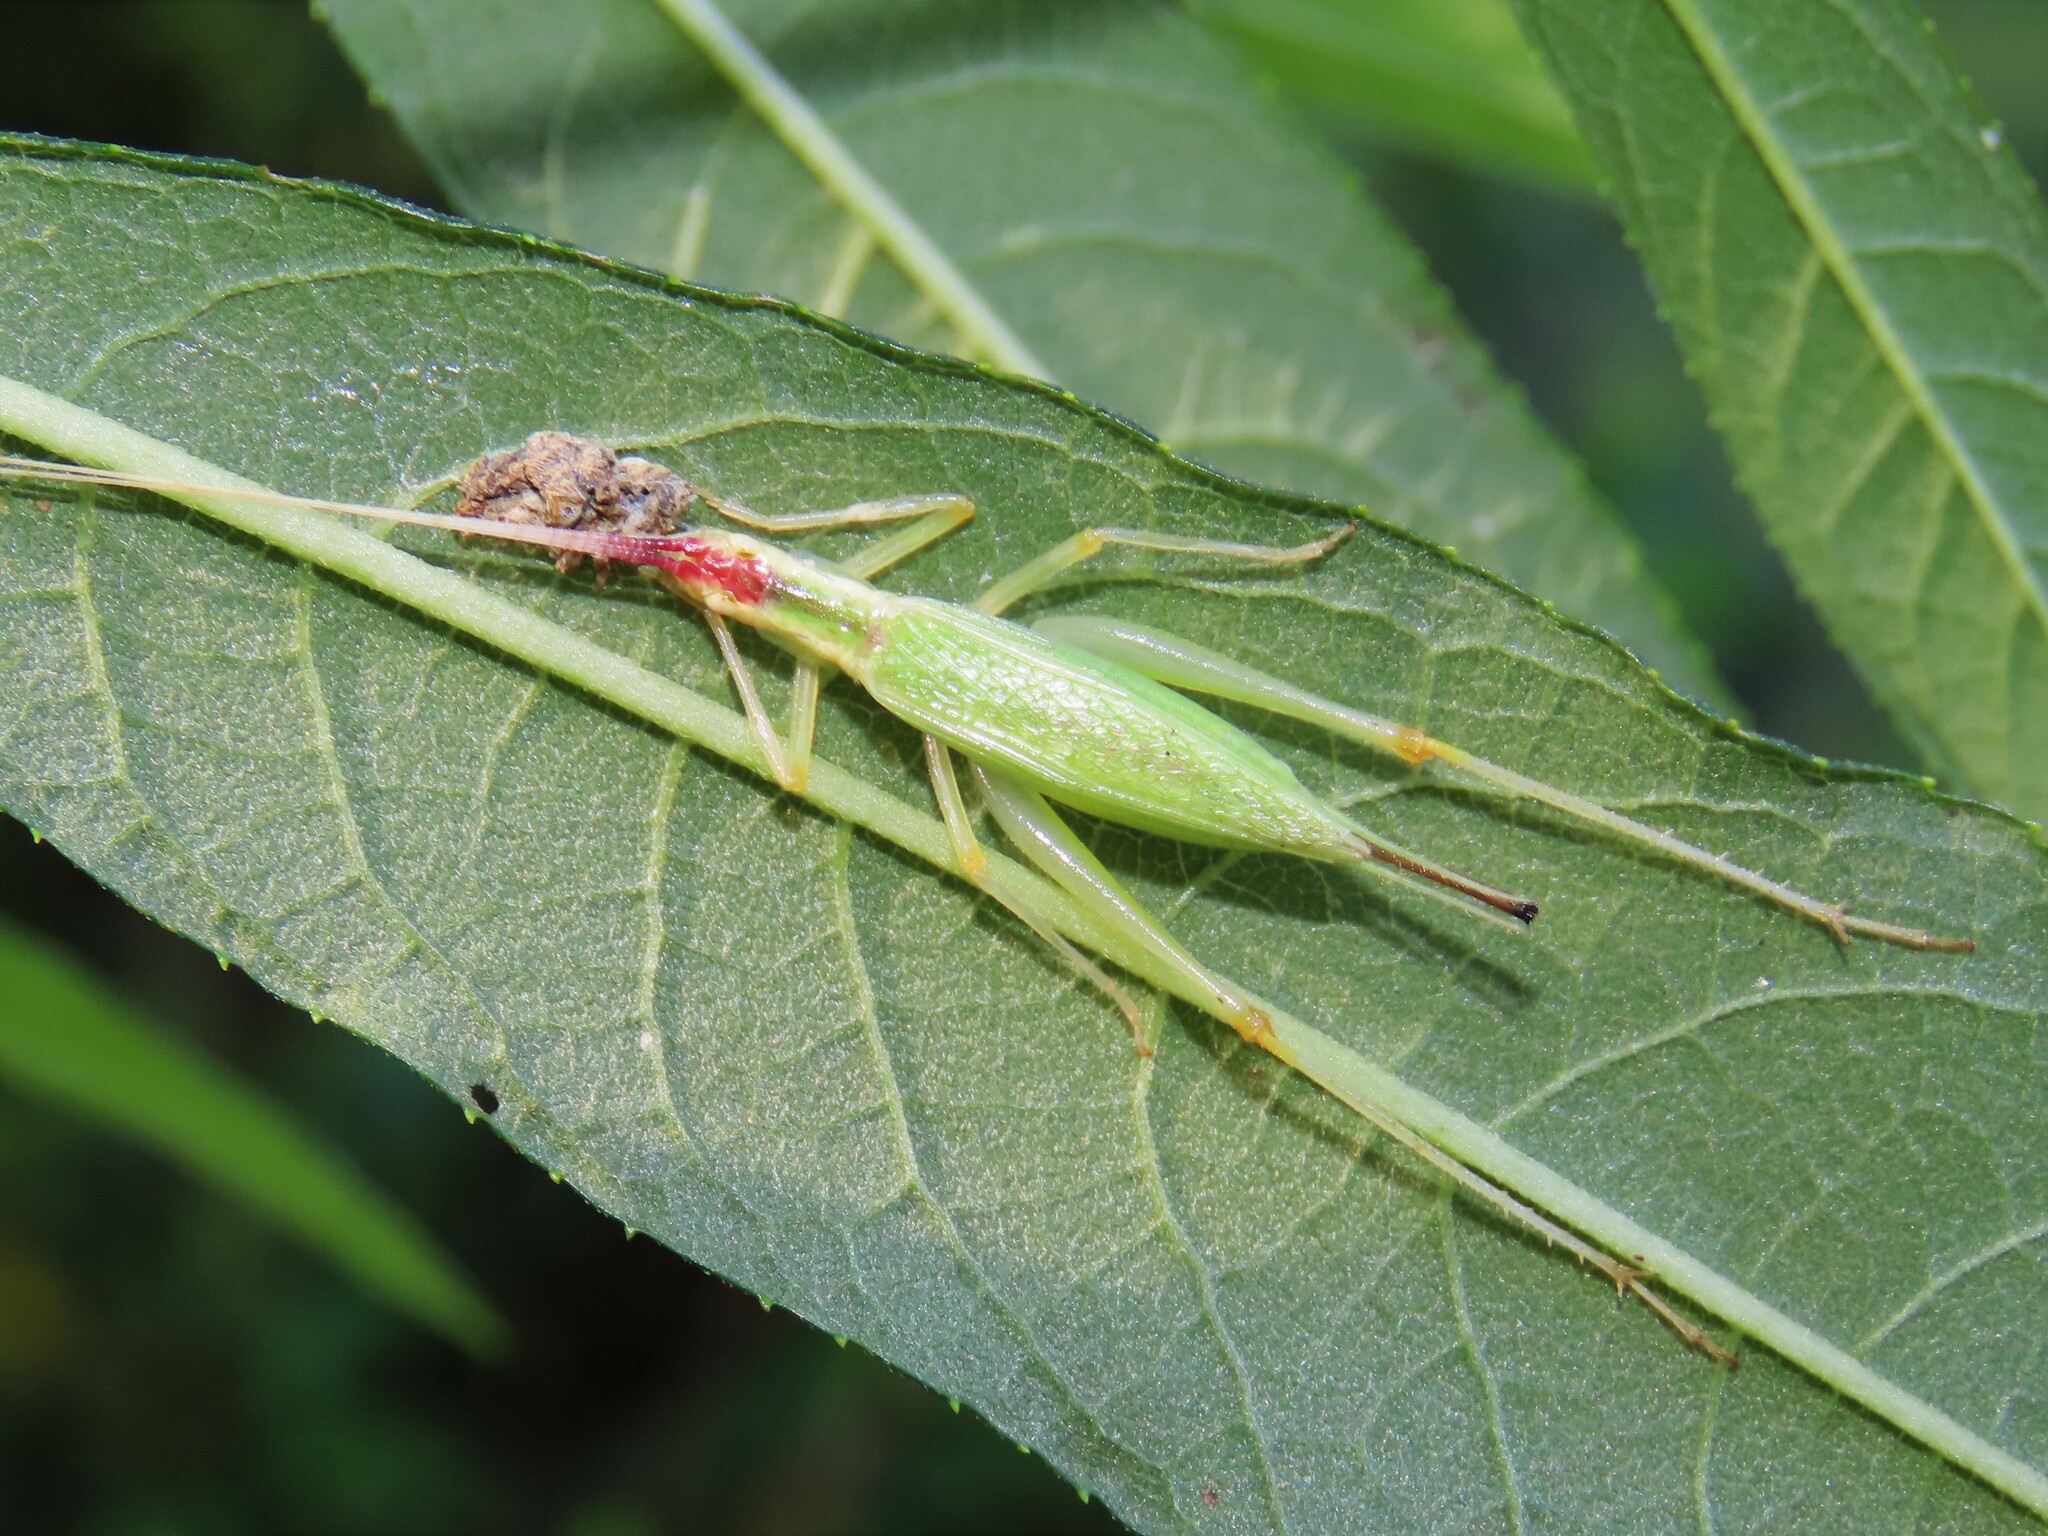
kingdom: Animalia
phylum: Arthropoda
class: Insecta
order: Orthoptera
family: Gryllidae
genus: Oecanthus
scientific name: Oecanthus latipennis
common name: Broad-winged tree cricket
